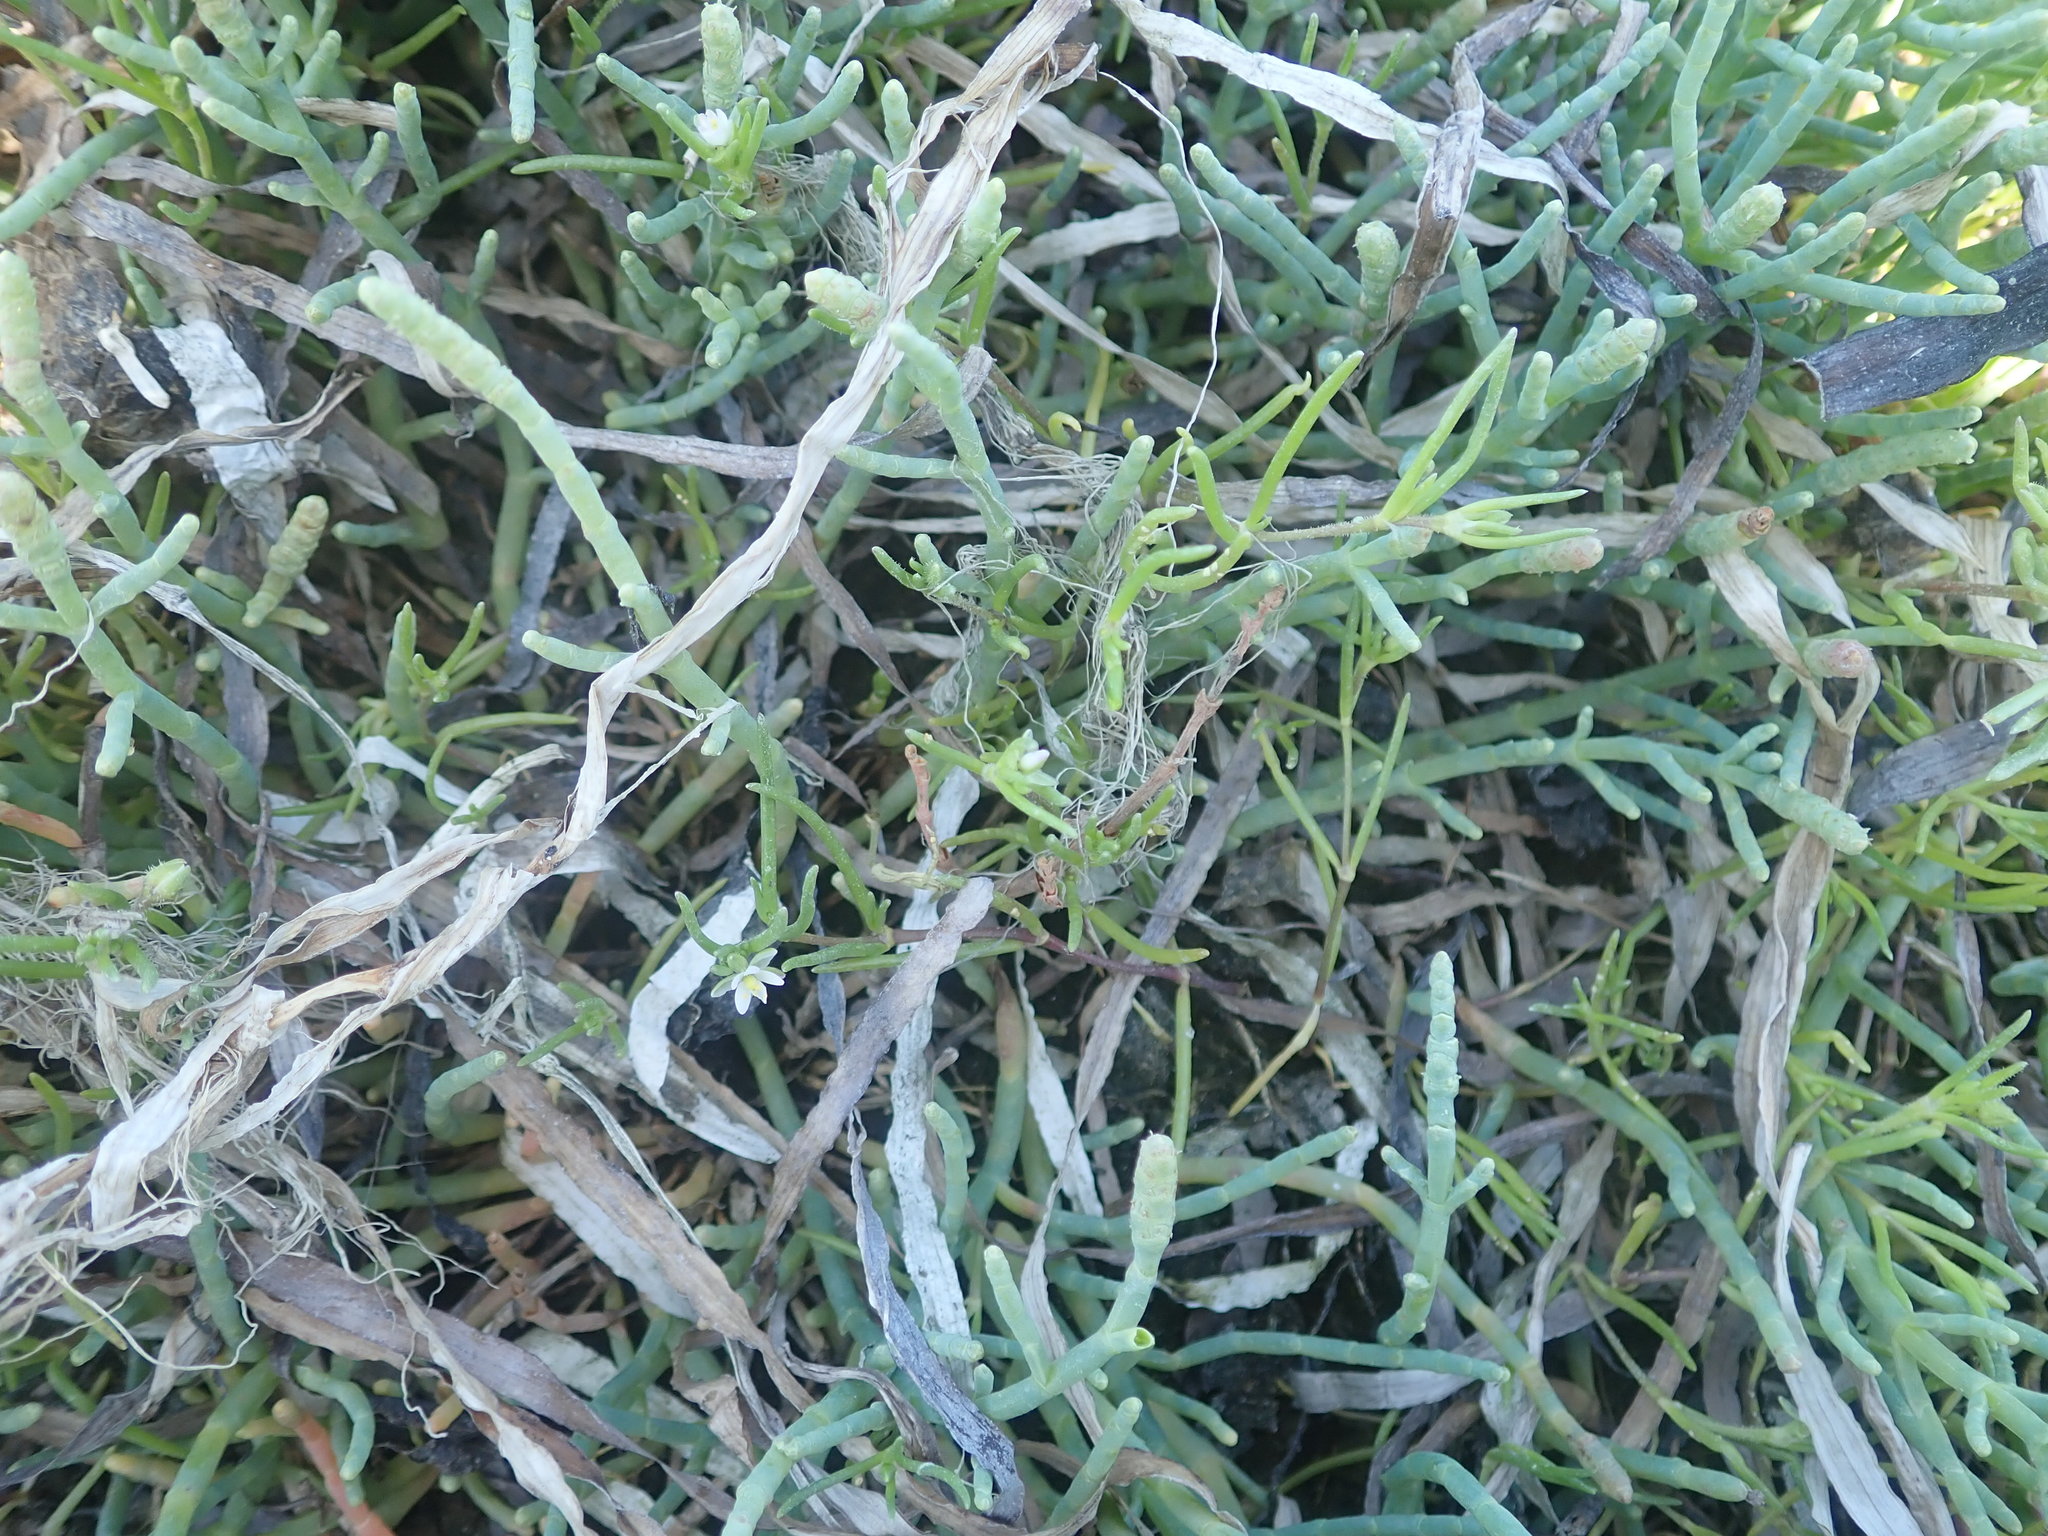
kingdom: Plantae
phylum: Tracheophyta
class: Magnoliopsida
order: Caryophyllales
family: Caryophyllaceae
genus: Spergularia
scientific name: Spergularia canadensis
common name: Canada sand-spurrey
